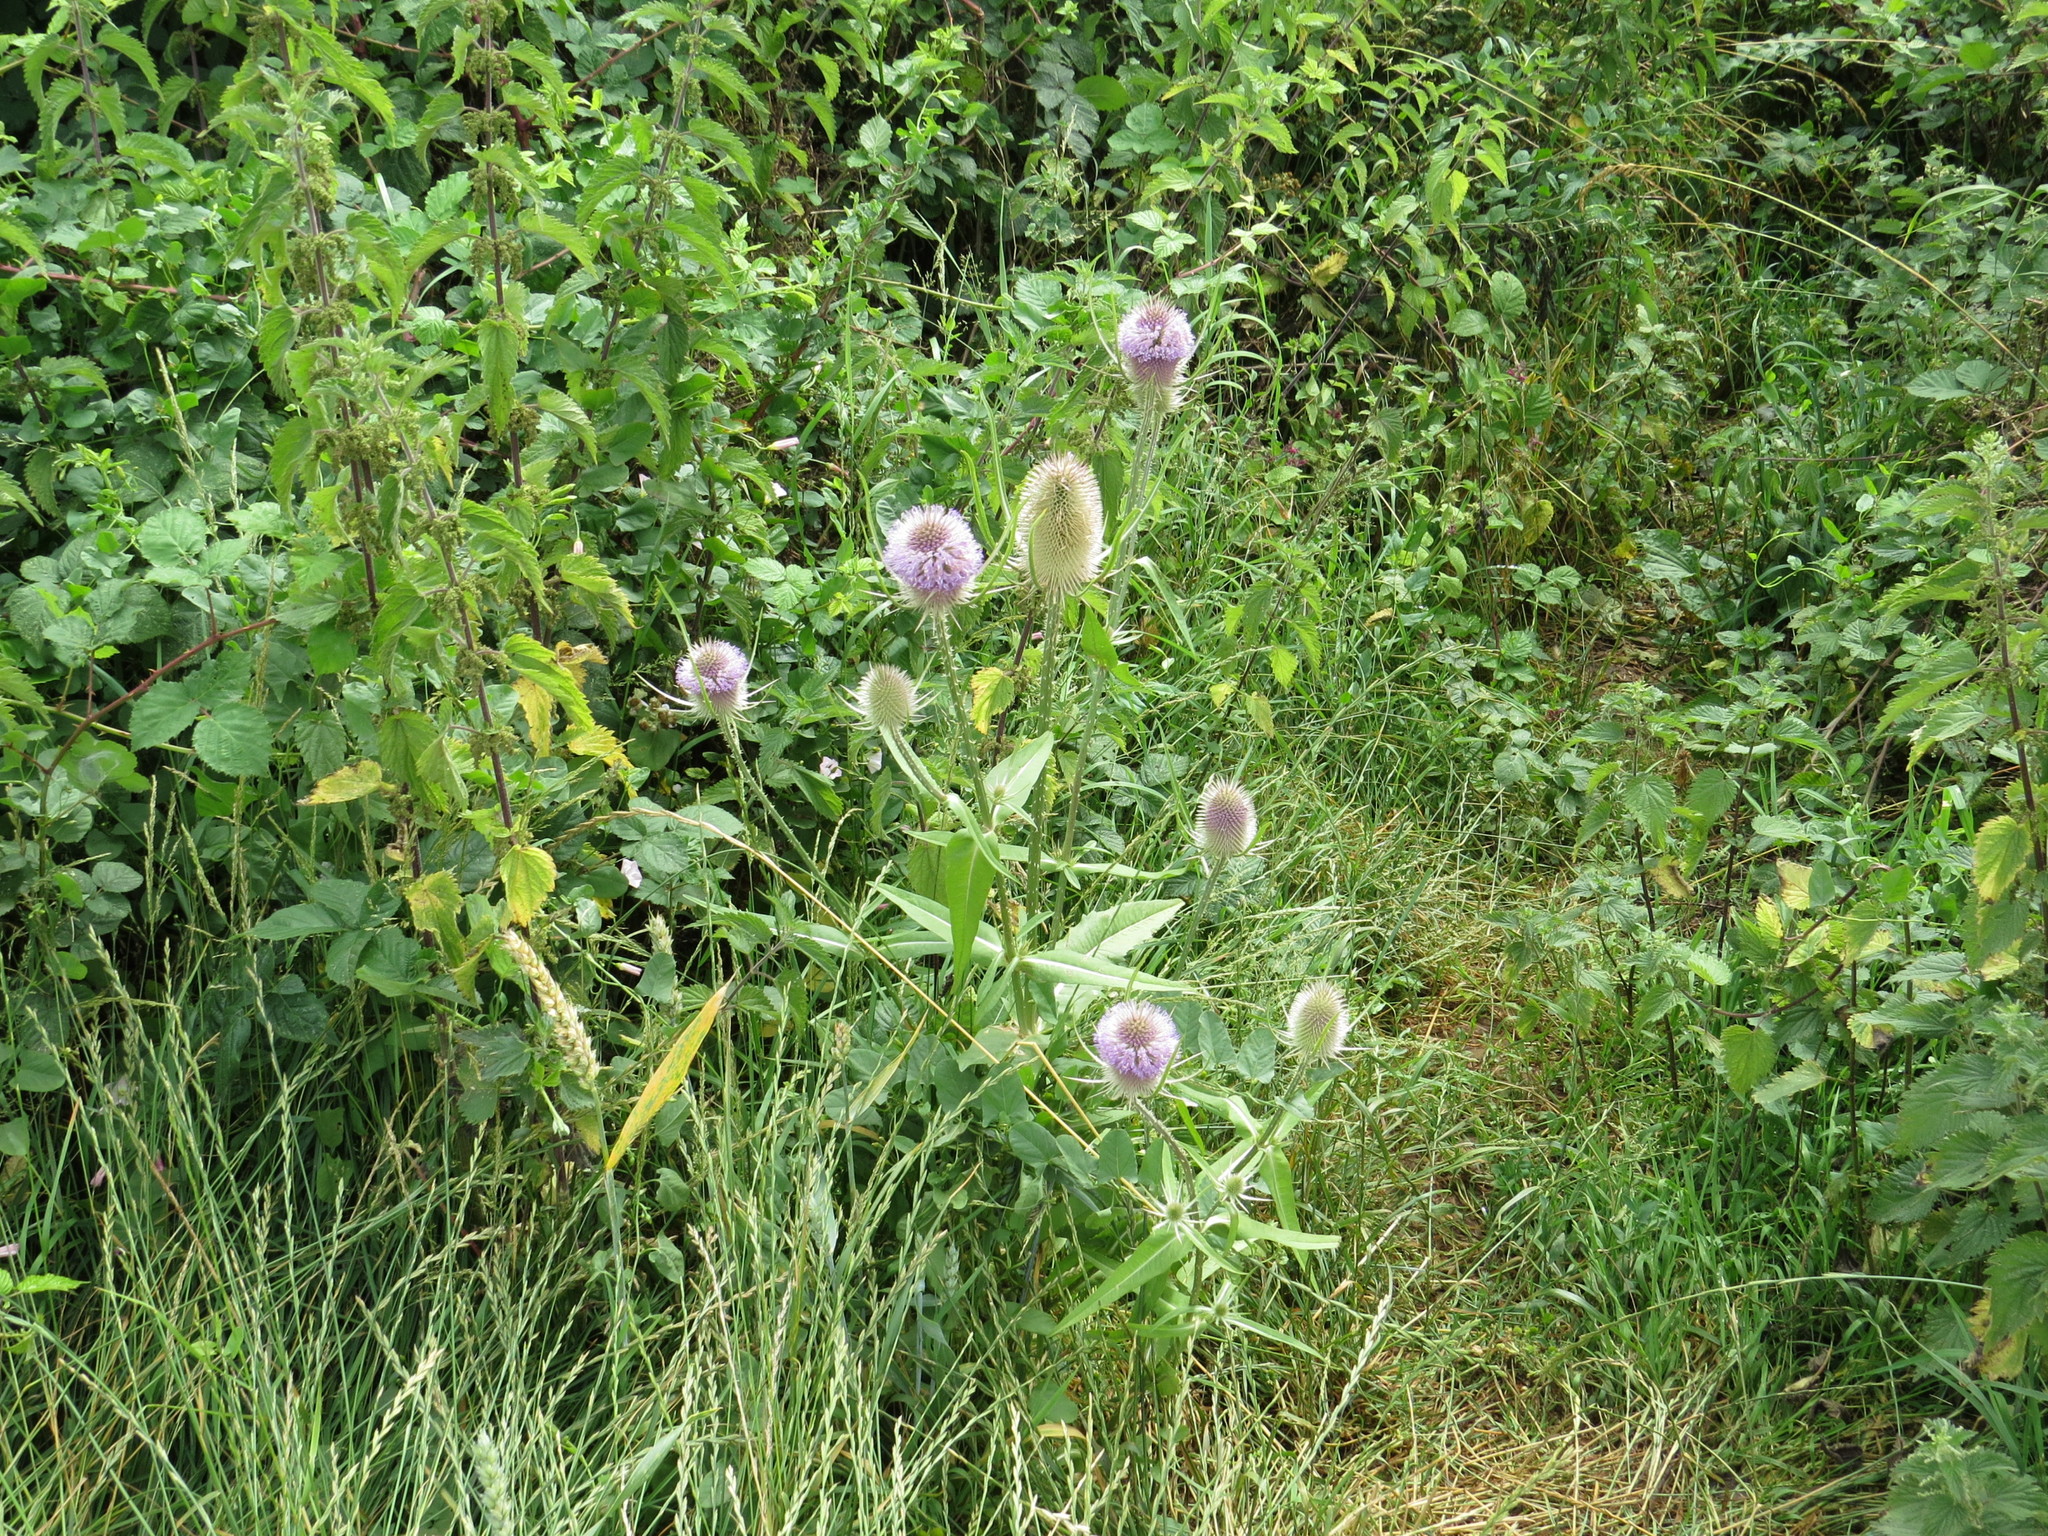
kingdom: Plantae
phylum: Tracheophyta
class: Magnoliopsida
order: Dipsacales
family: Caprifoliaceae
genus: Dipsacus
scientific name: Dipsacus fullonum
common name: Teasel
